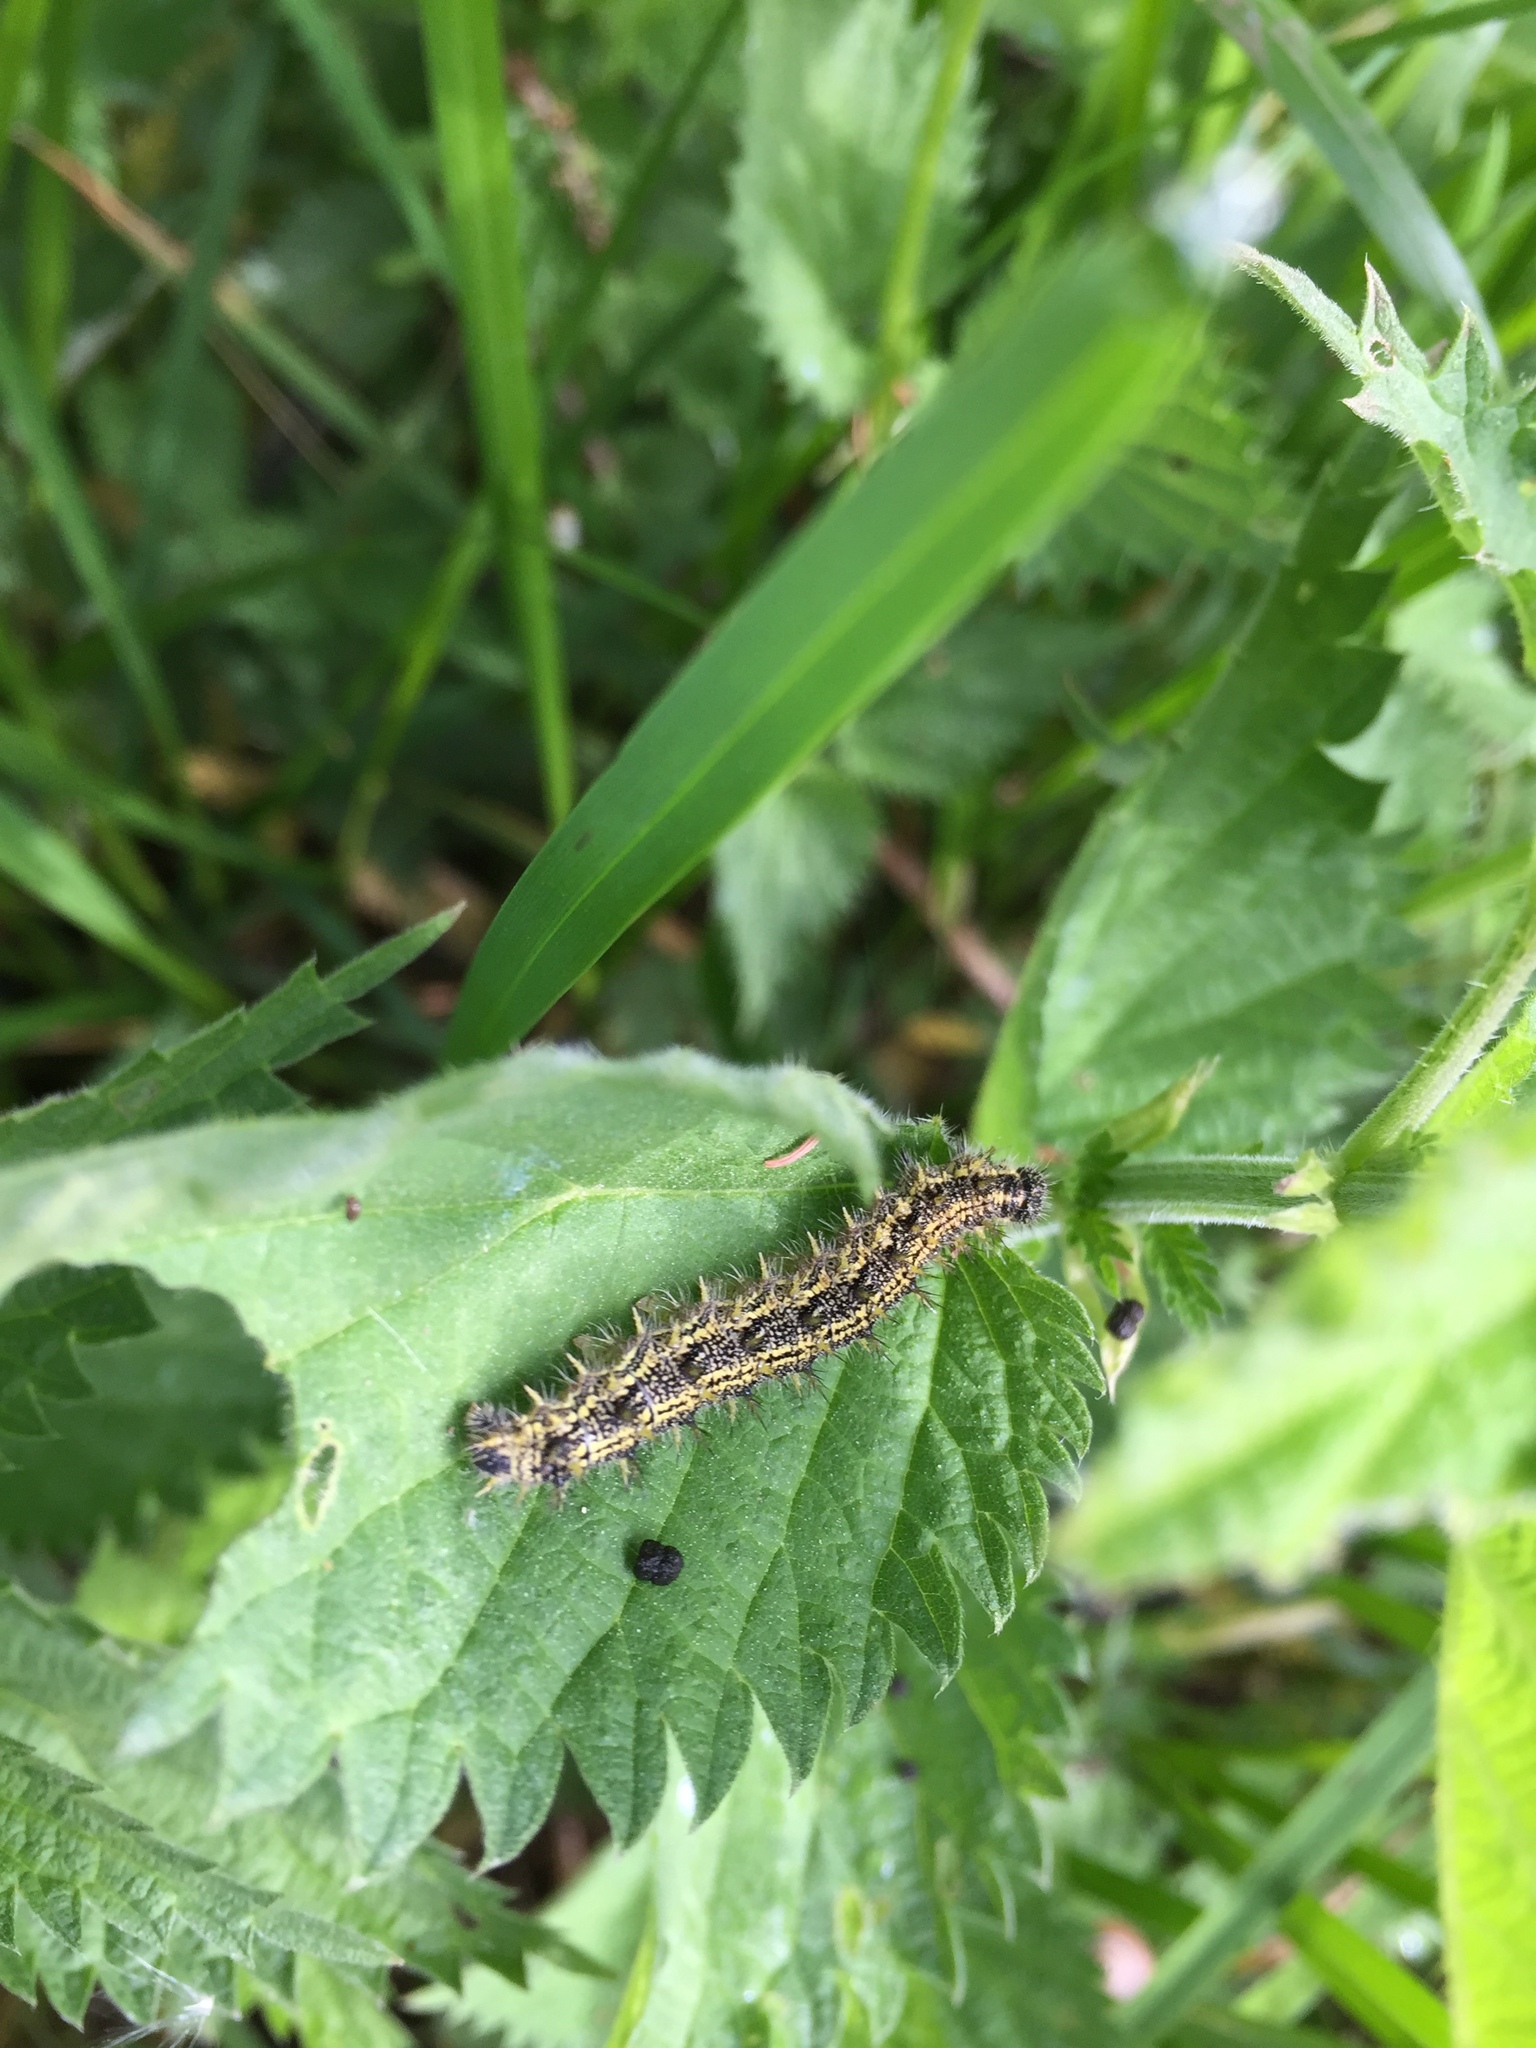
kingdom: Animalia
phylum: Arthropoda
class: Insecta
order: Lepidoptera
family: Nymphalidae
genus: Aglais
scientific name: Aglais urticae
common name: Small tortoiseshell
